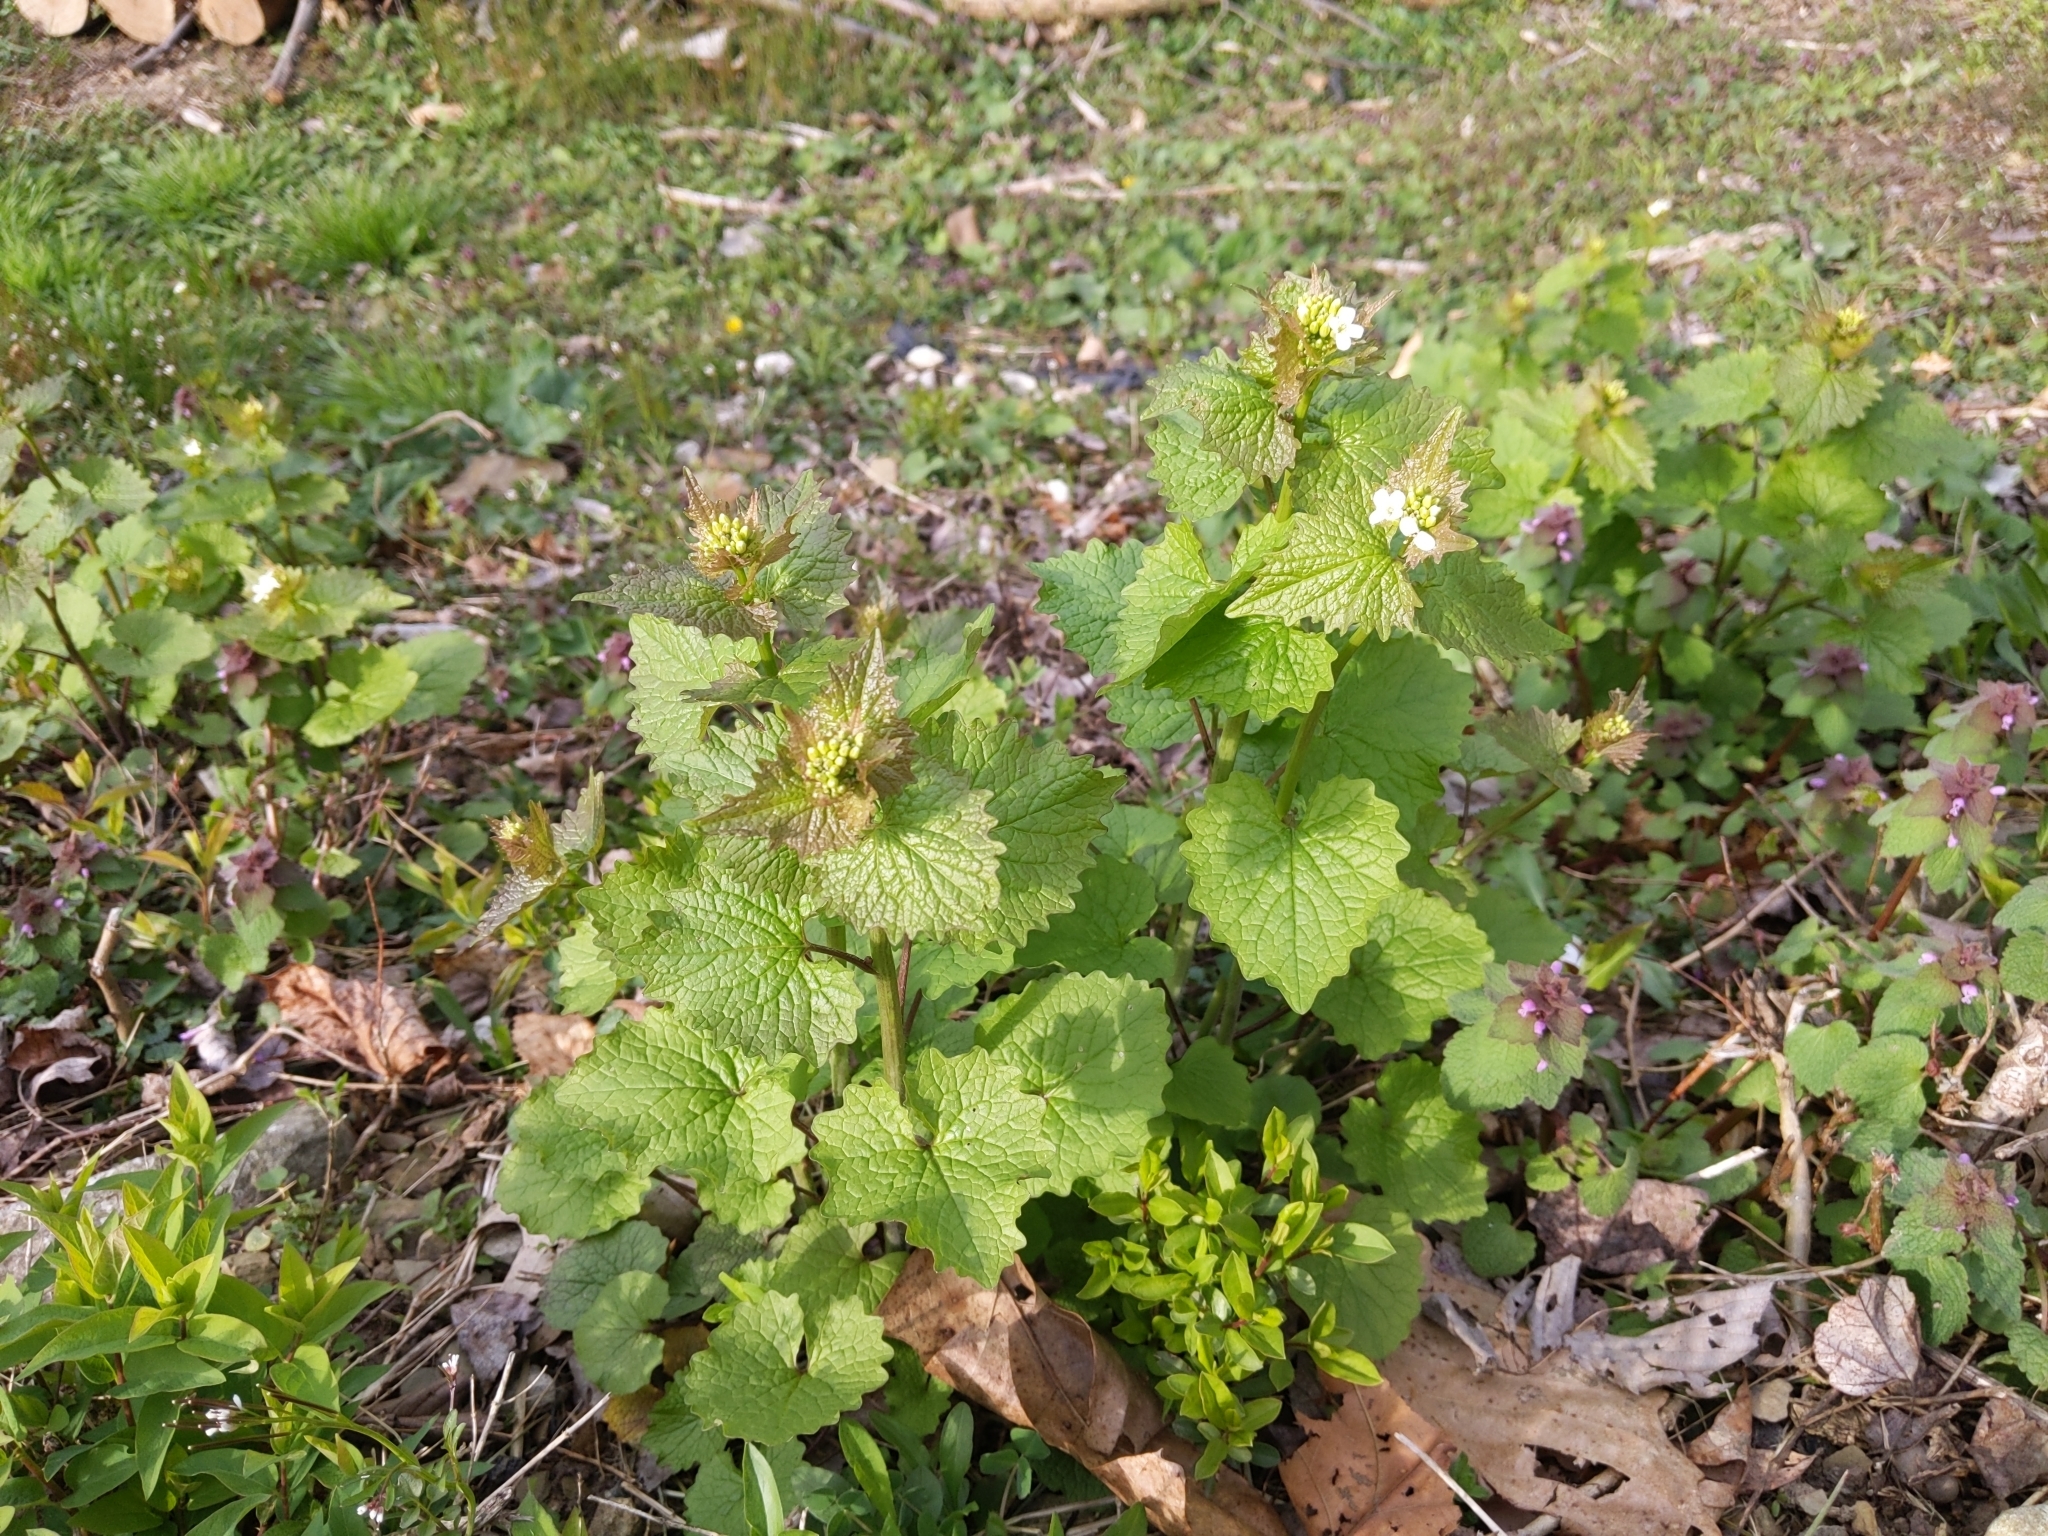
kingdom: Plantae
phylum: Tracheophyta
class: Magnoliopsida
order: Brassicales
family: Brassicaceae
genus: Alliaria
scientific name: Alliaria petiolata
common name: Garlic mustard
